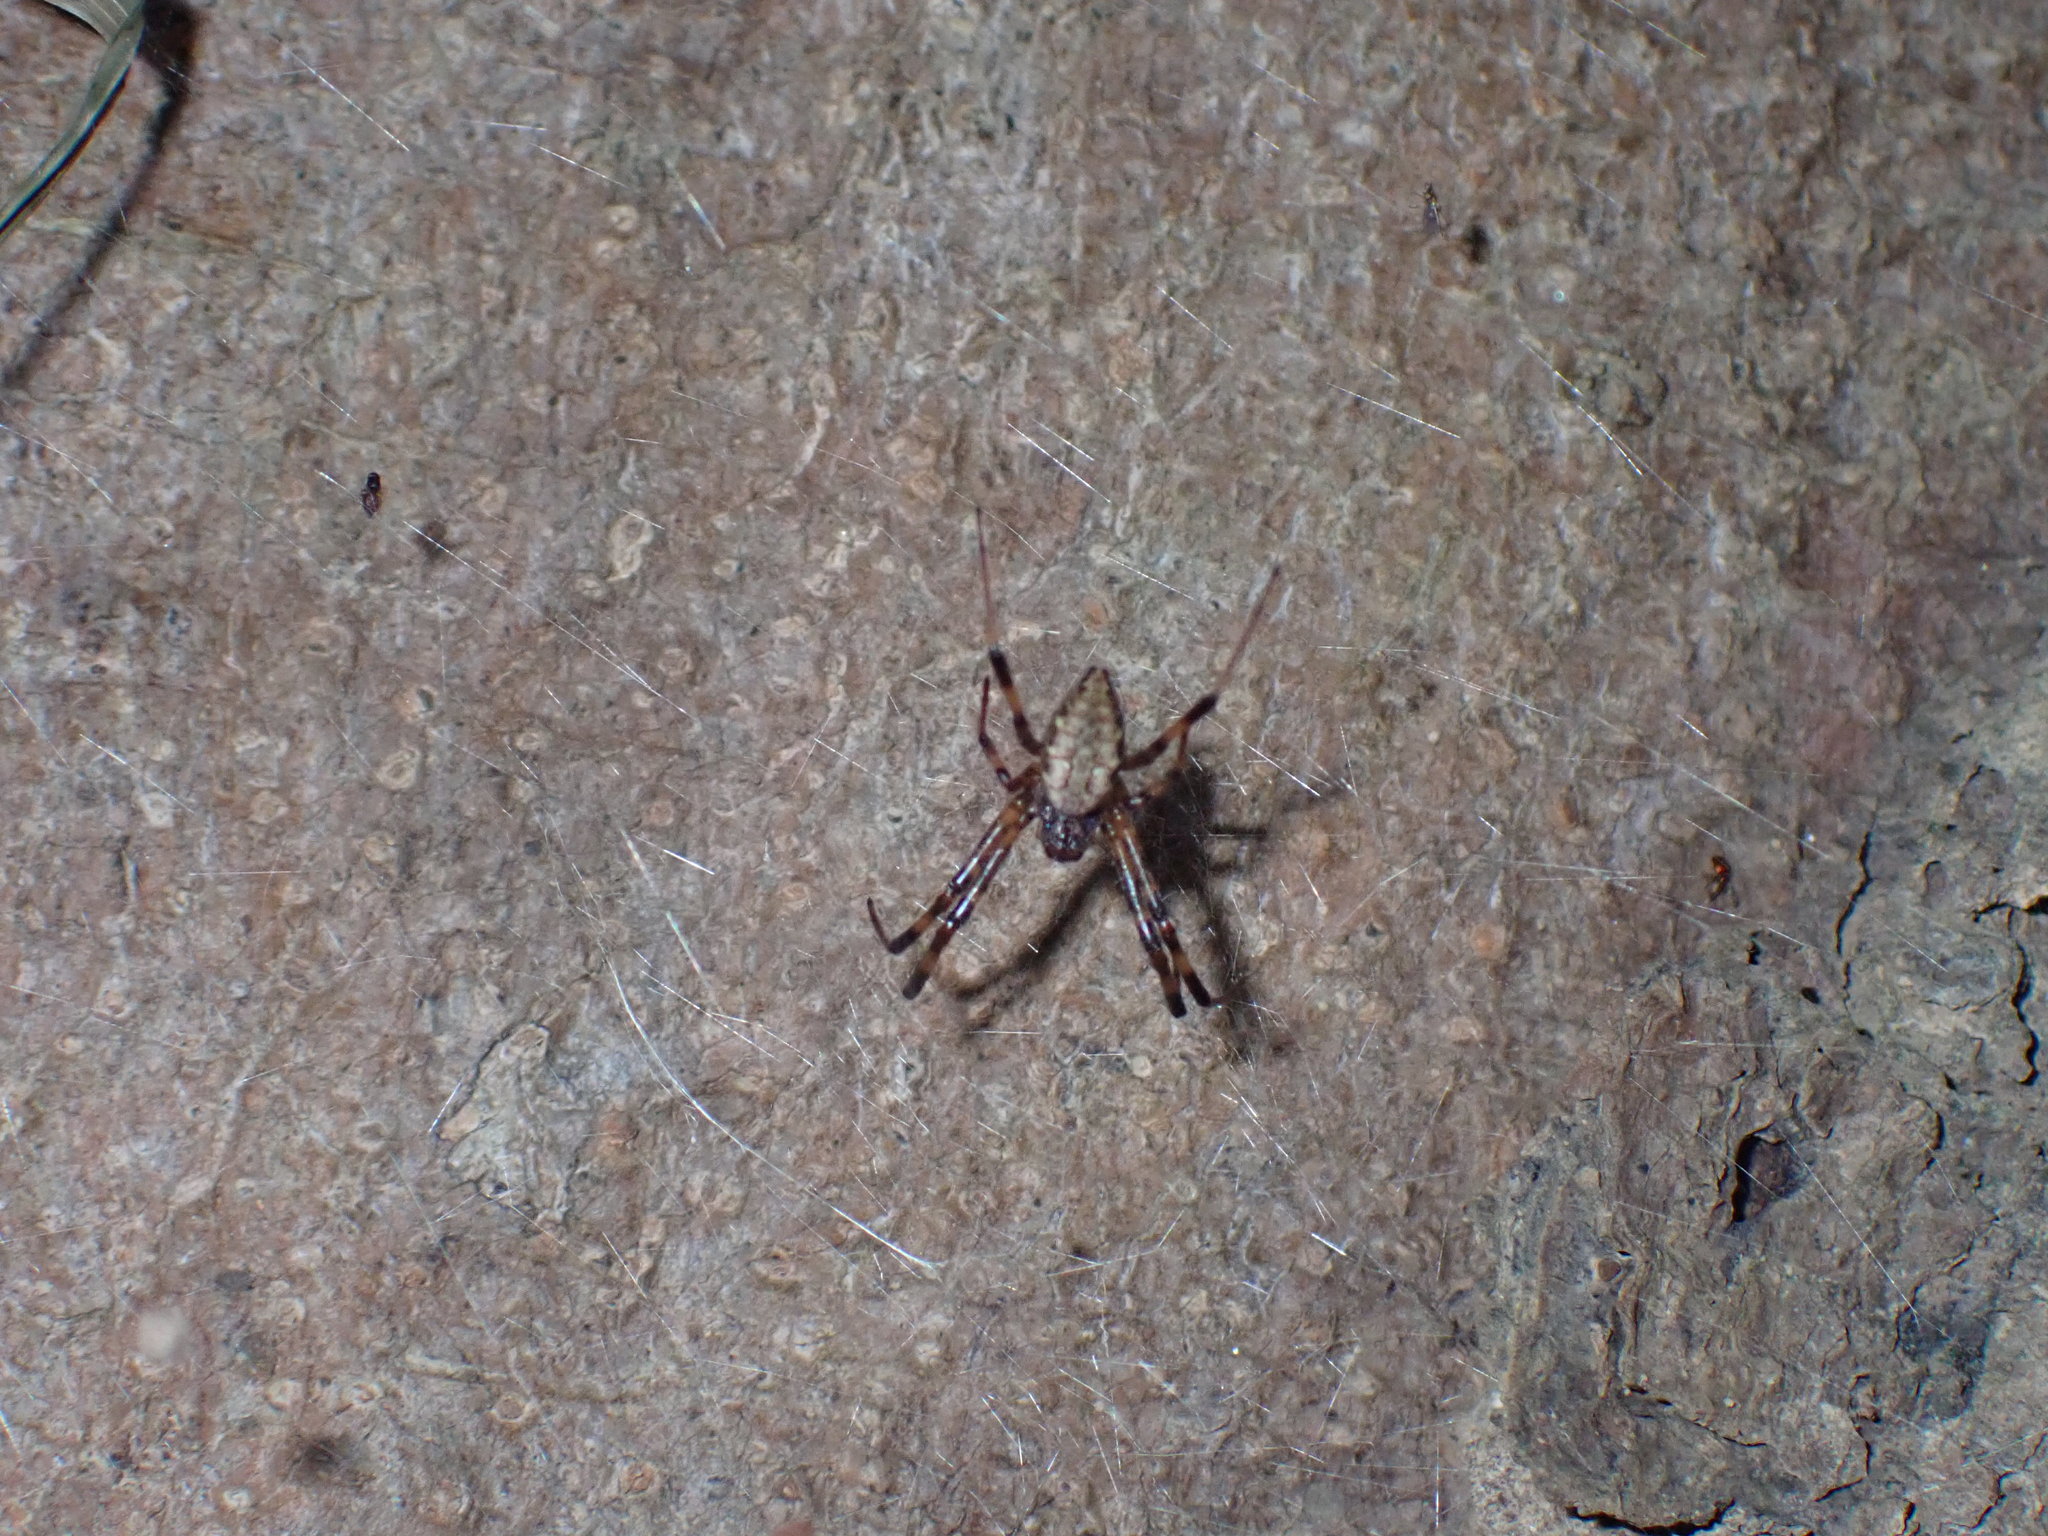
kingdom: Animalia
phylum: Arthropoda
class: Arachnida
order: Araneae
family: Araneidae
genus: Nephilengys
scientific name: Nephilengys malabarensis
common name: Asian hermit spider
